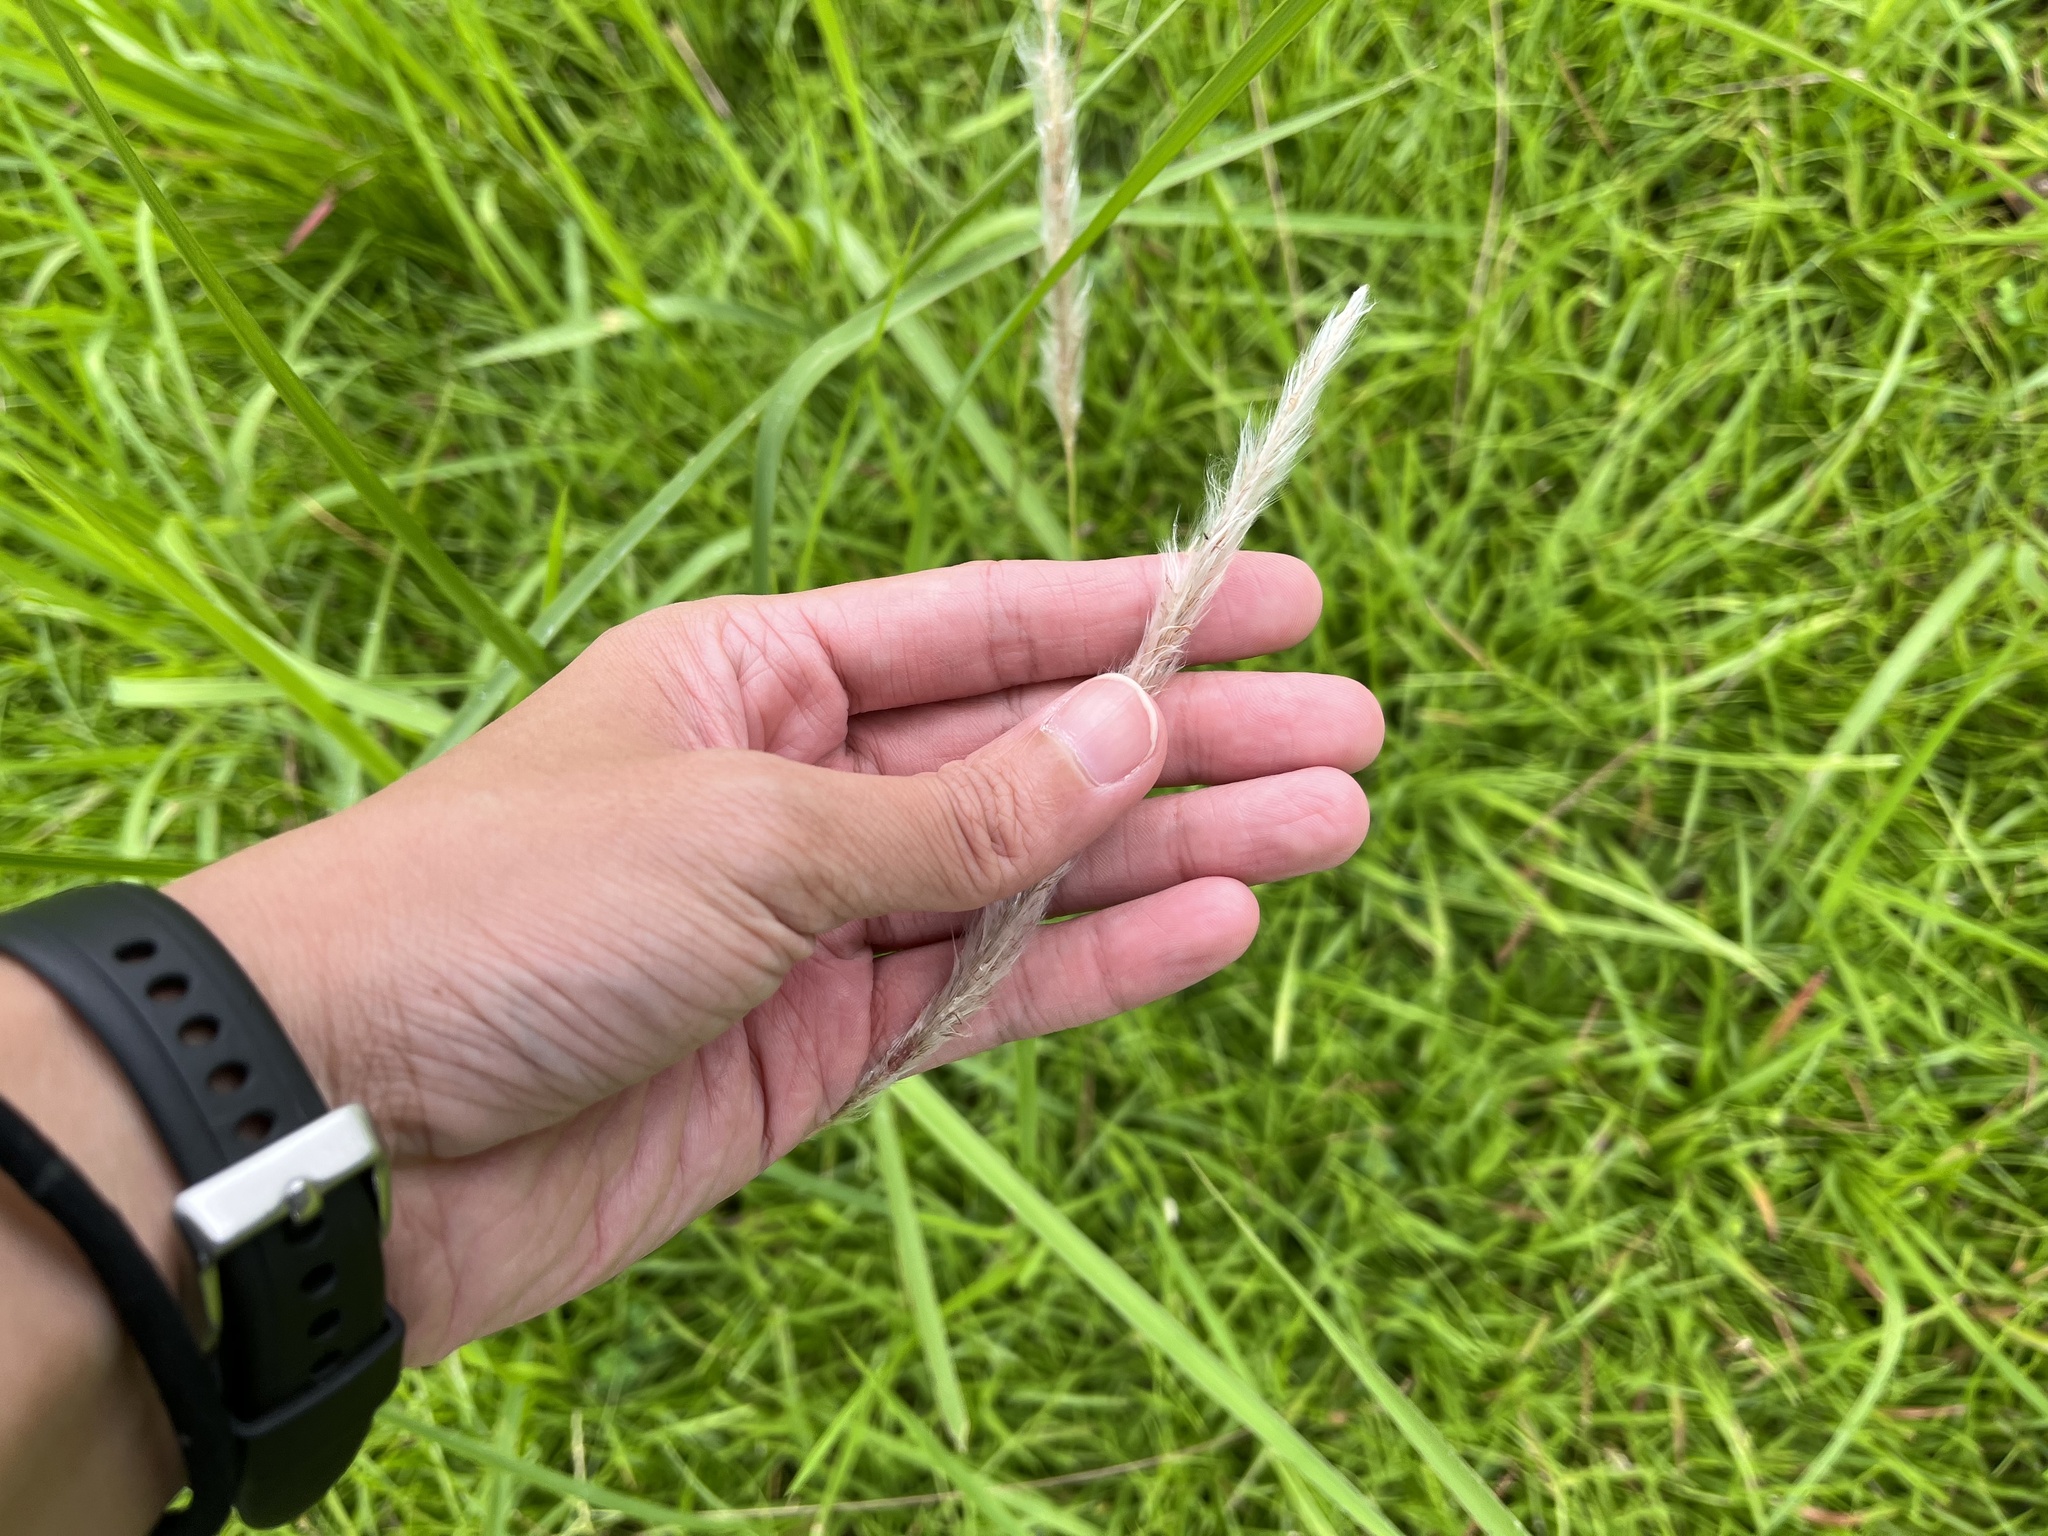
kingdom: Plantae
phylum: Tracheophyta
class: Liliopsida
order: Poales
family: Poaceae
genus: Imperata
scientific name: Imperata cylindrica
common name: Cogongrass
